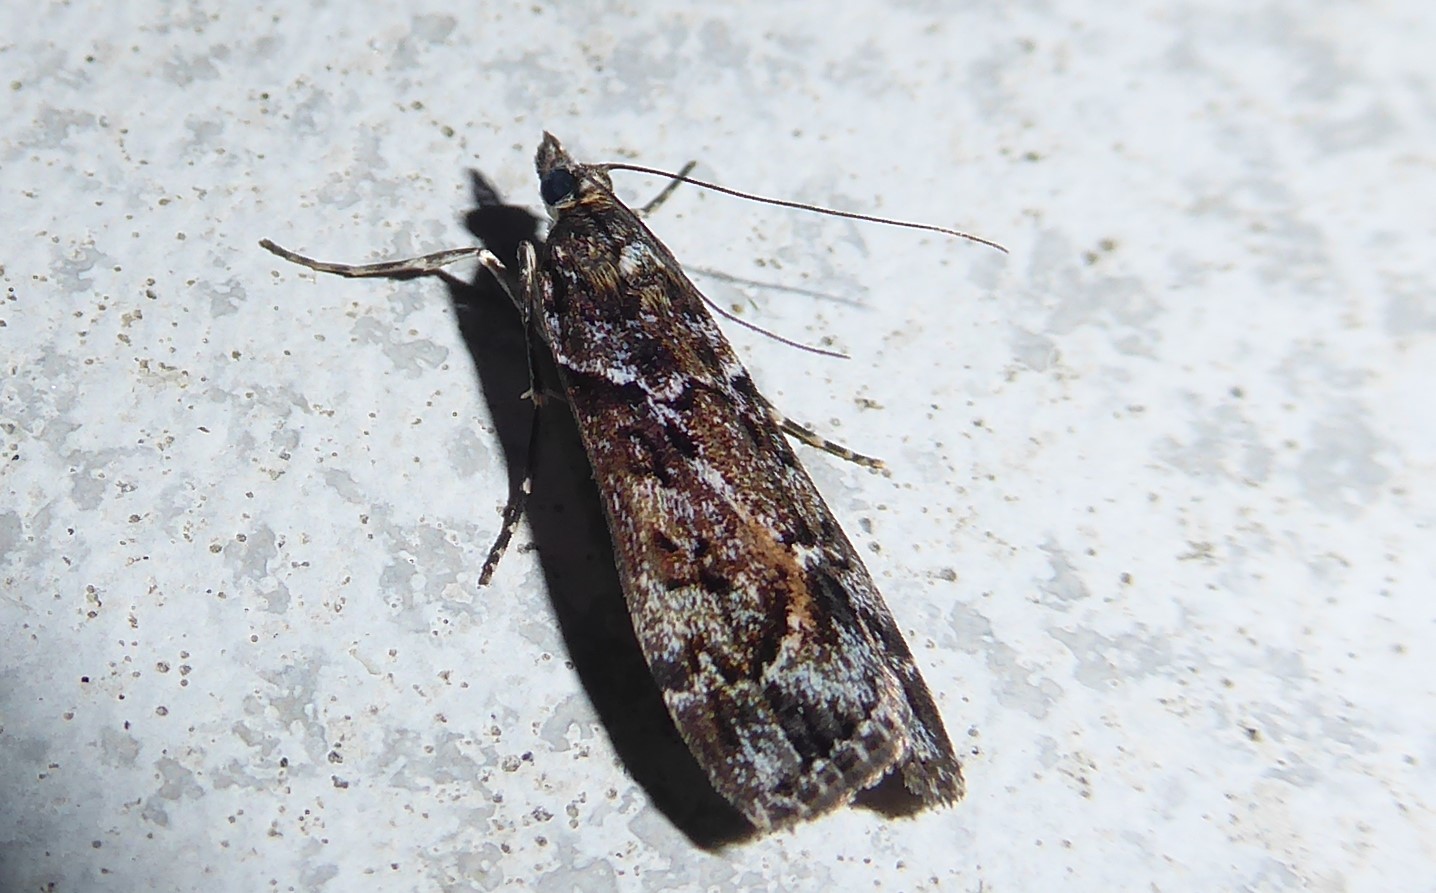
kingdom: Animalia
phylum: Arthropoda
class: Insecta
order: Lepidoptera
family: Crambidae
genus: Eudonia
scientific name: Eudonia submarginalis
